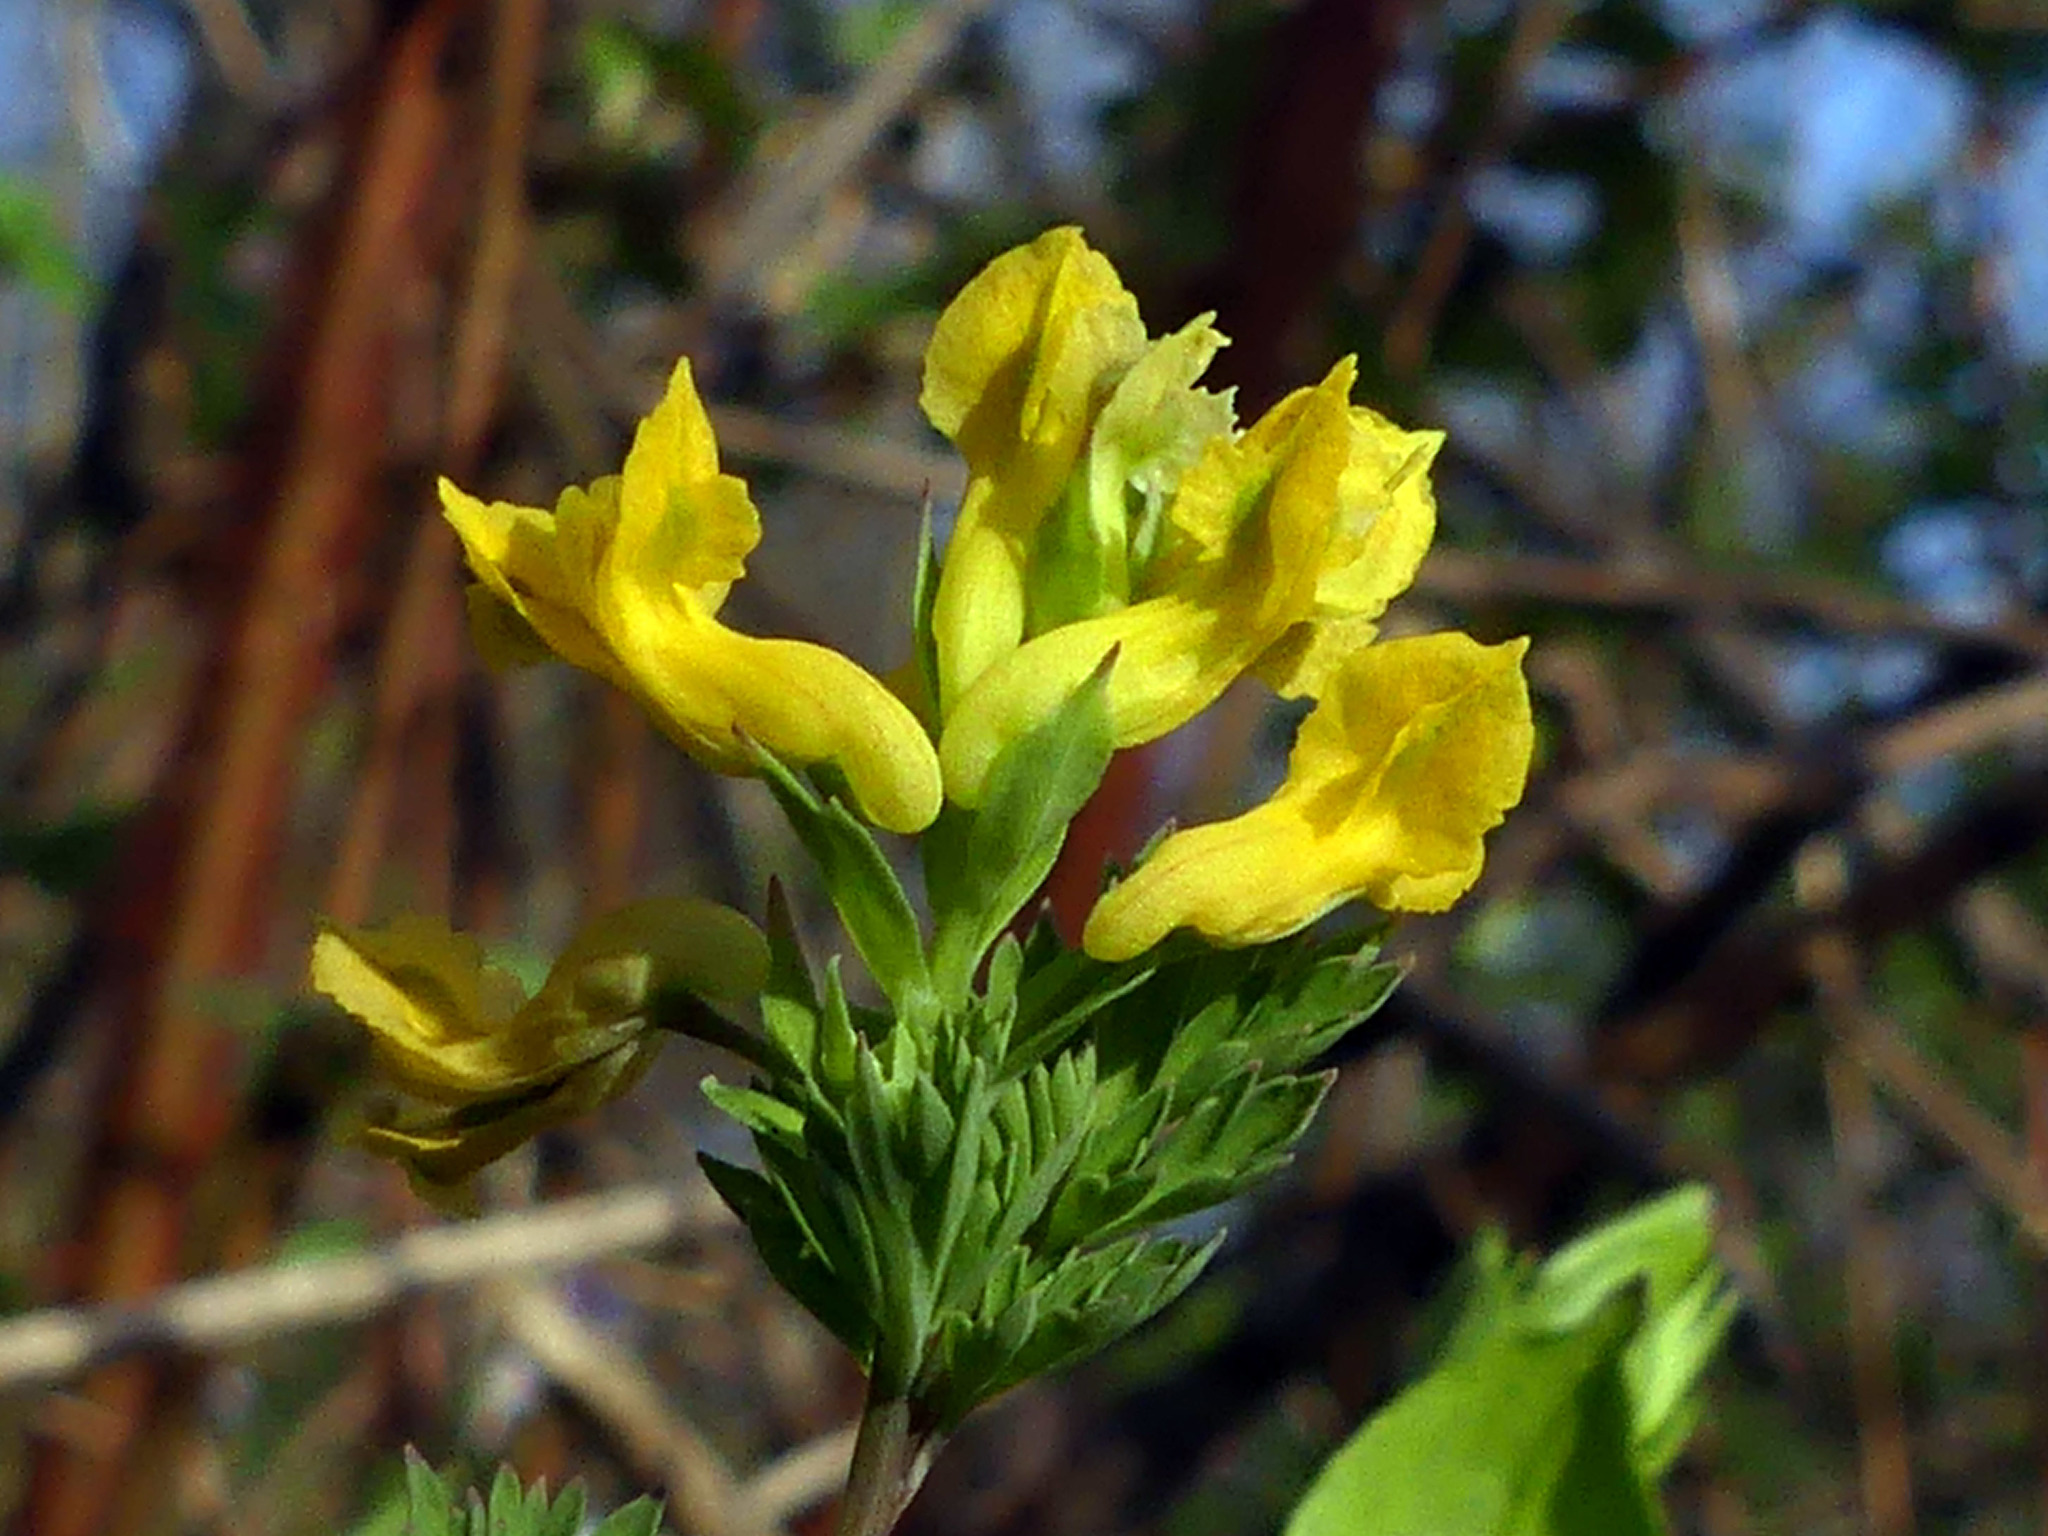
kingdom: Plantae
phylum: Tracheophyta
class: Magnoliopsida
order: Ranunculales
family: Papaveraceae
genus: Corydalis
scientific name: Corydalis flavula
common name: Yellow corydalis
